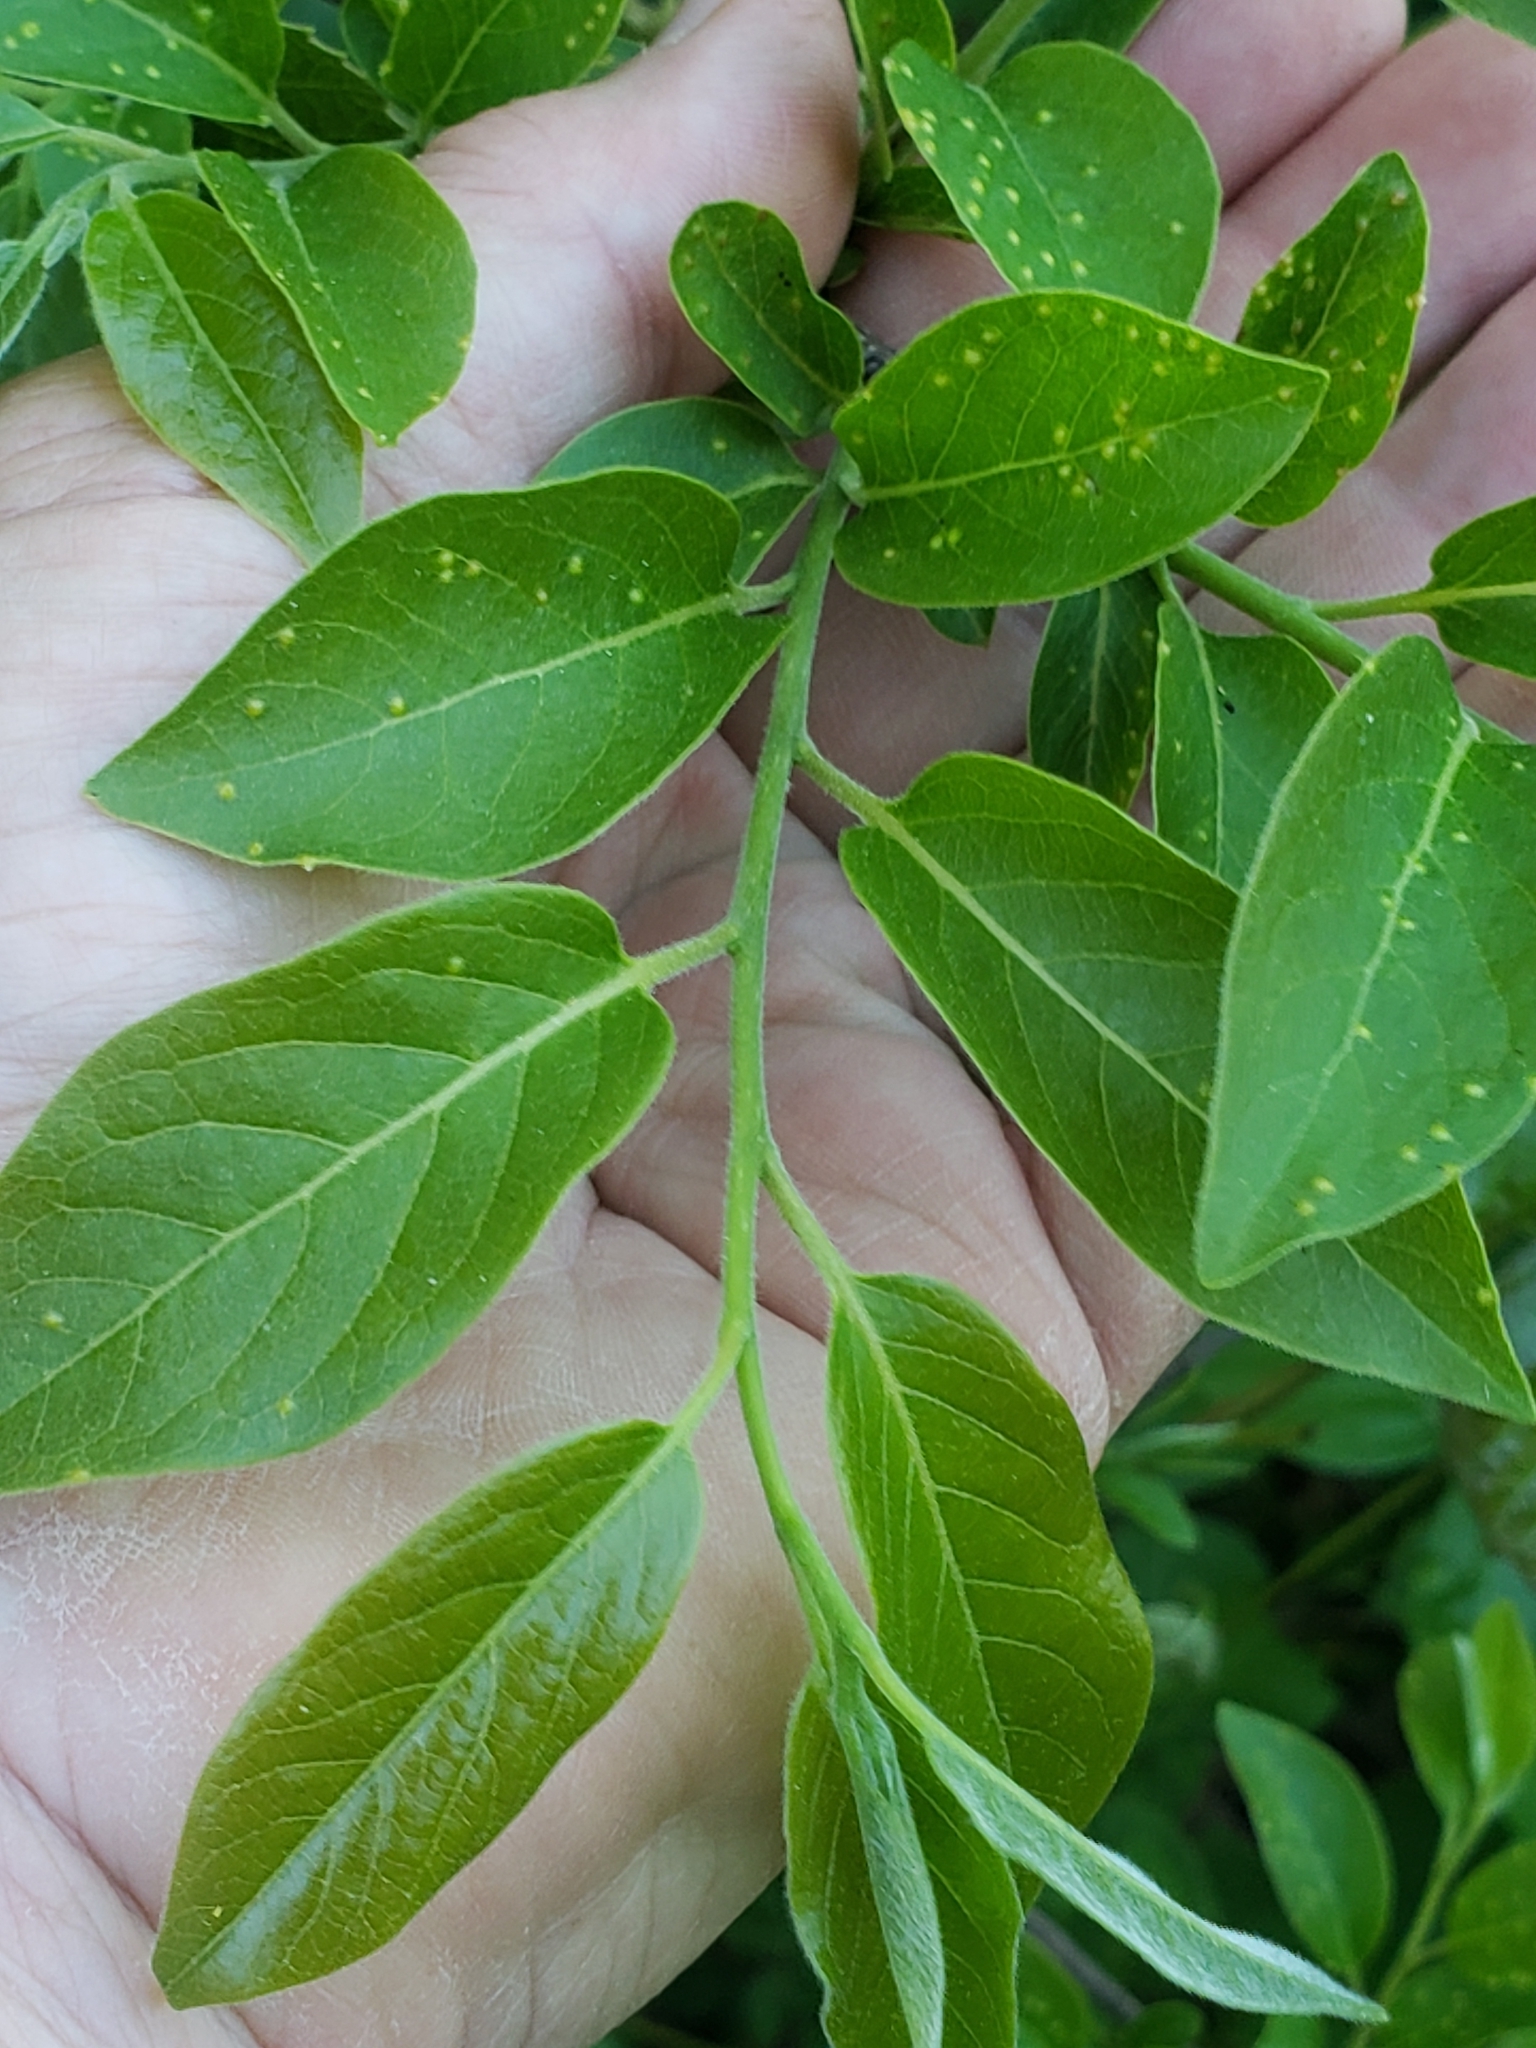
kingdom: Animalia
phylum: Arthropoda
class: Arachnida
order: Trombidiformes
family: Eriophyidae
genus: Aceria
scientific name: Aceria
